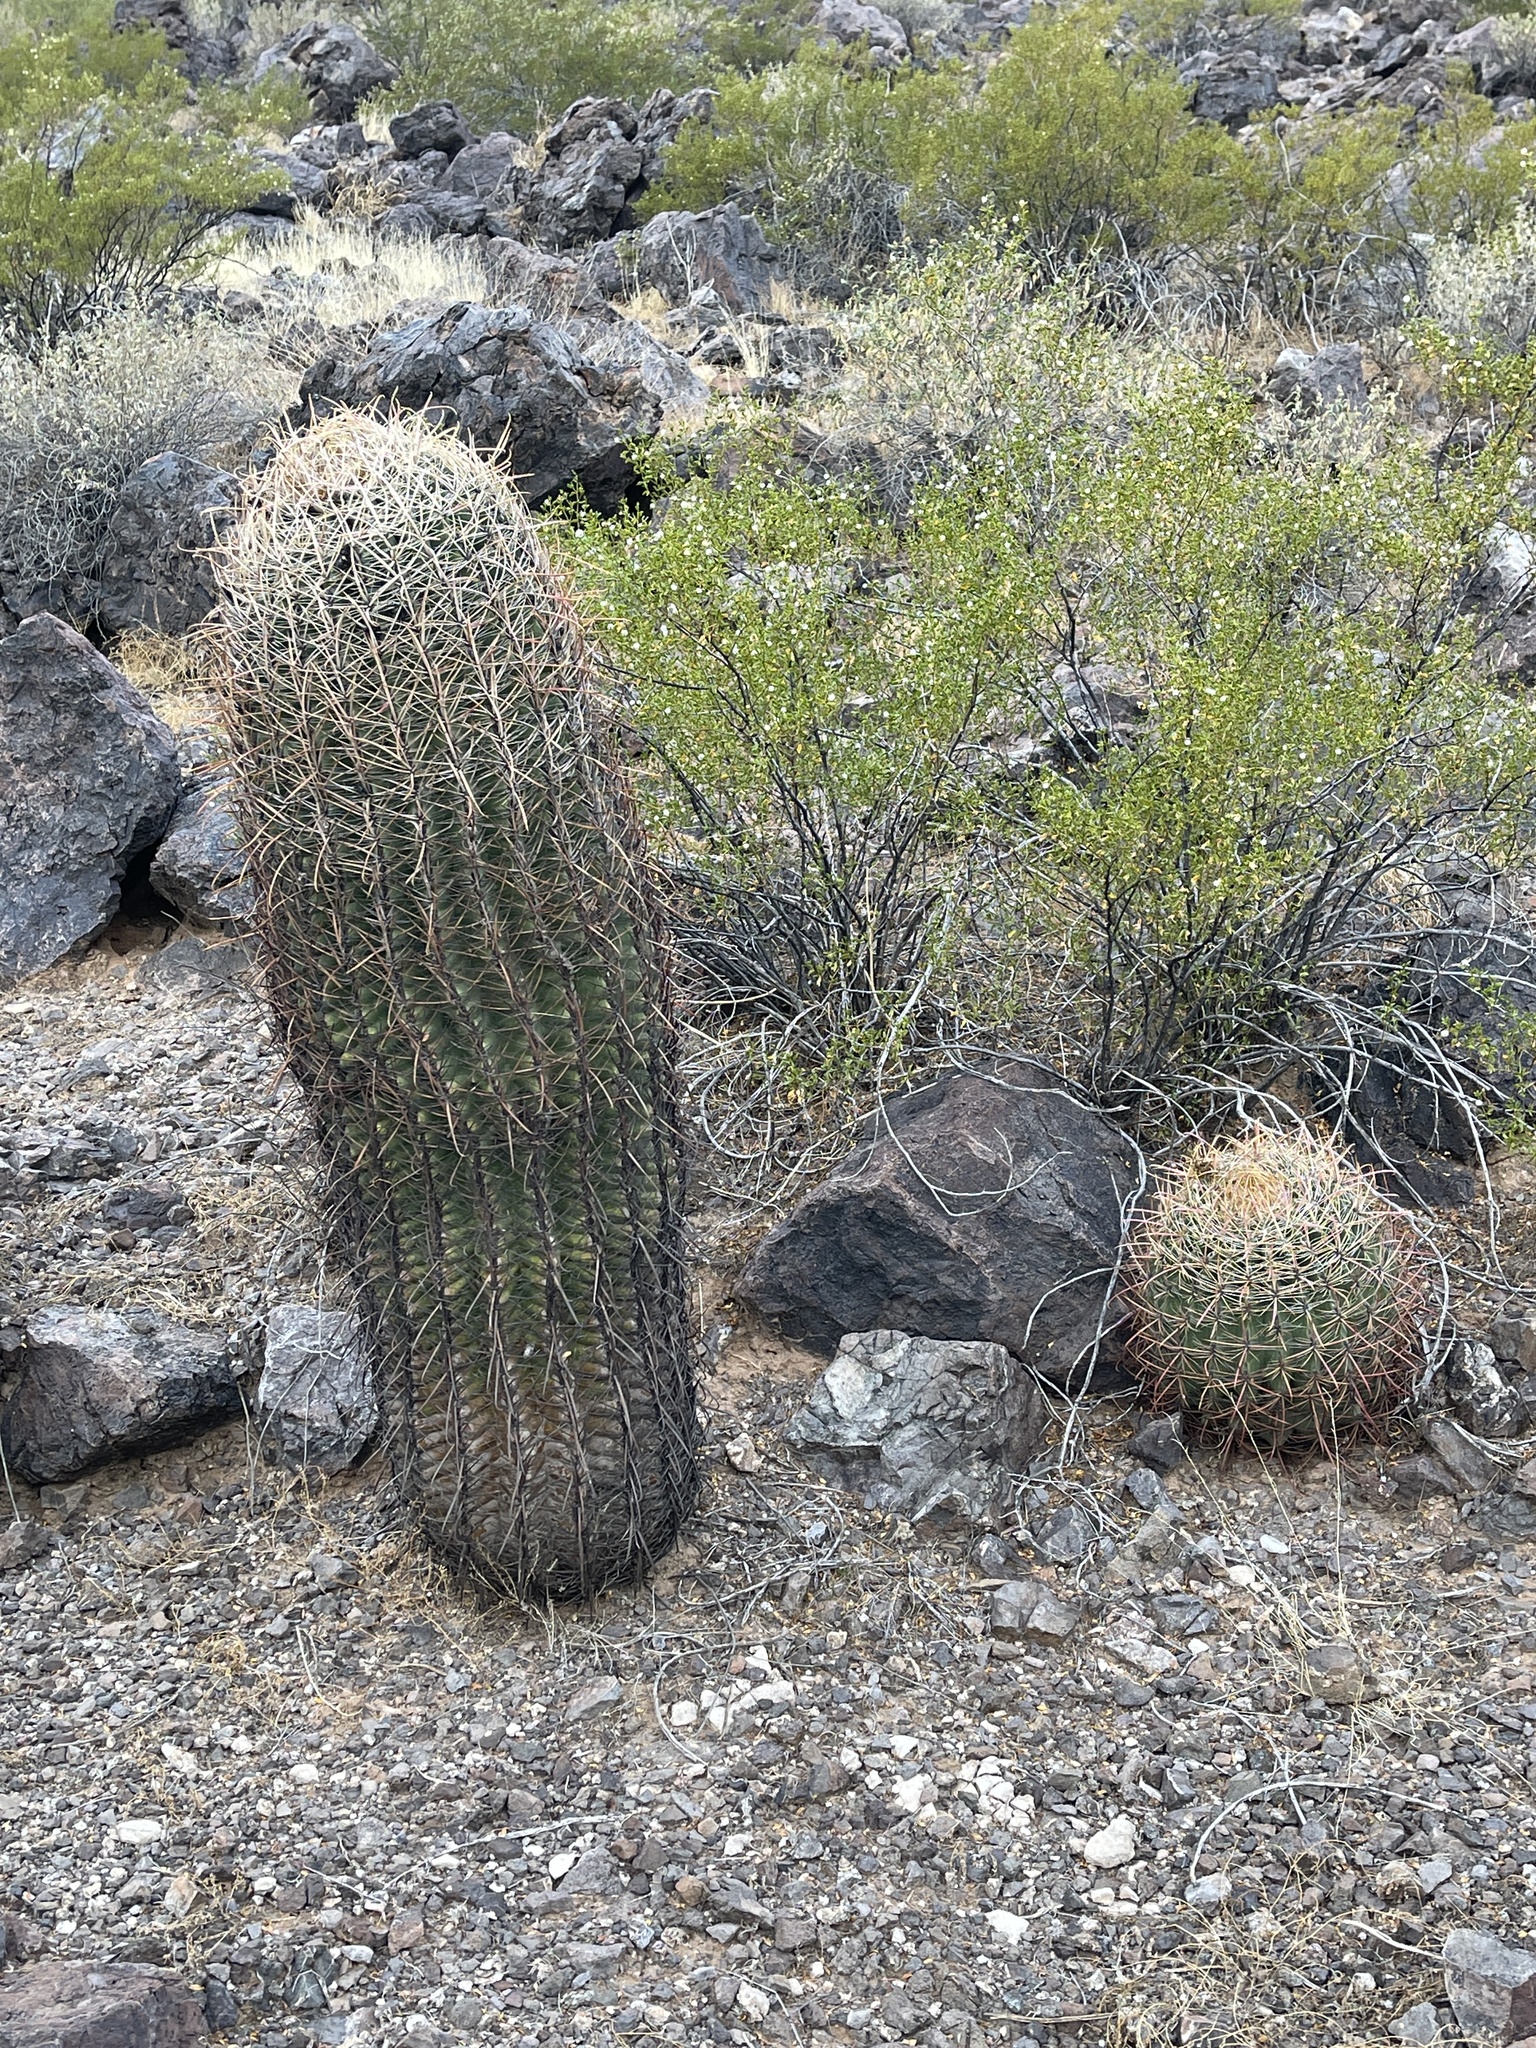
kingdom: Plantae
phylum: Tracheophyta
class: Magnoliopsida
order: Caryophyllales
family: Cactaceae
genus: Ferocactus
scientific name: Ferocactus cylindraceus
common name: California barrel cactus
